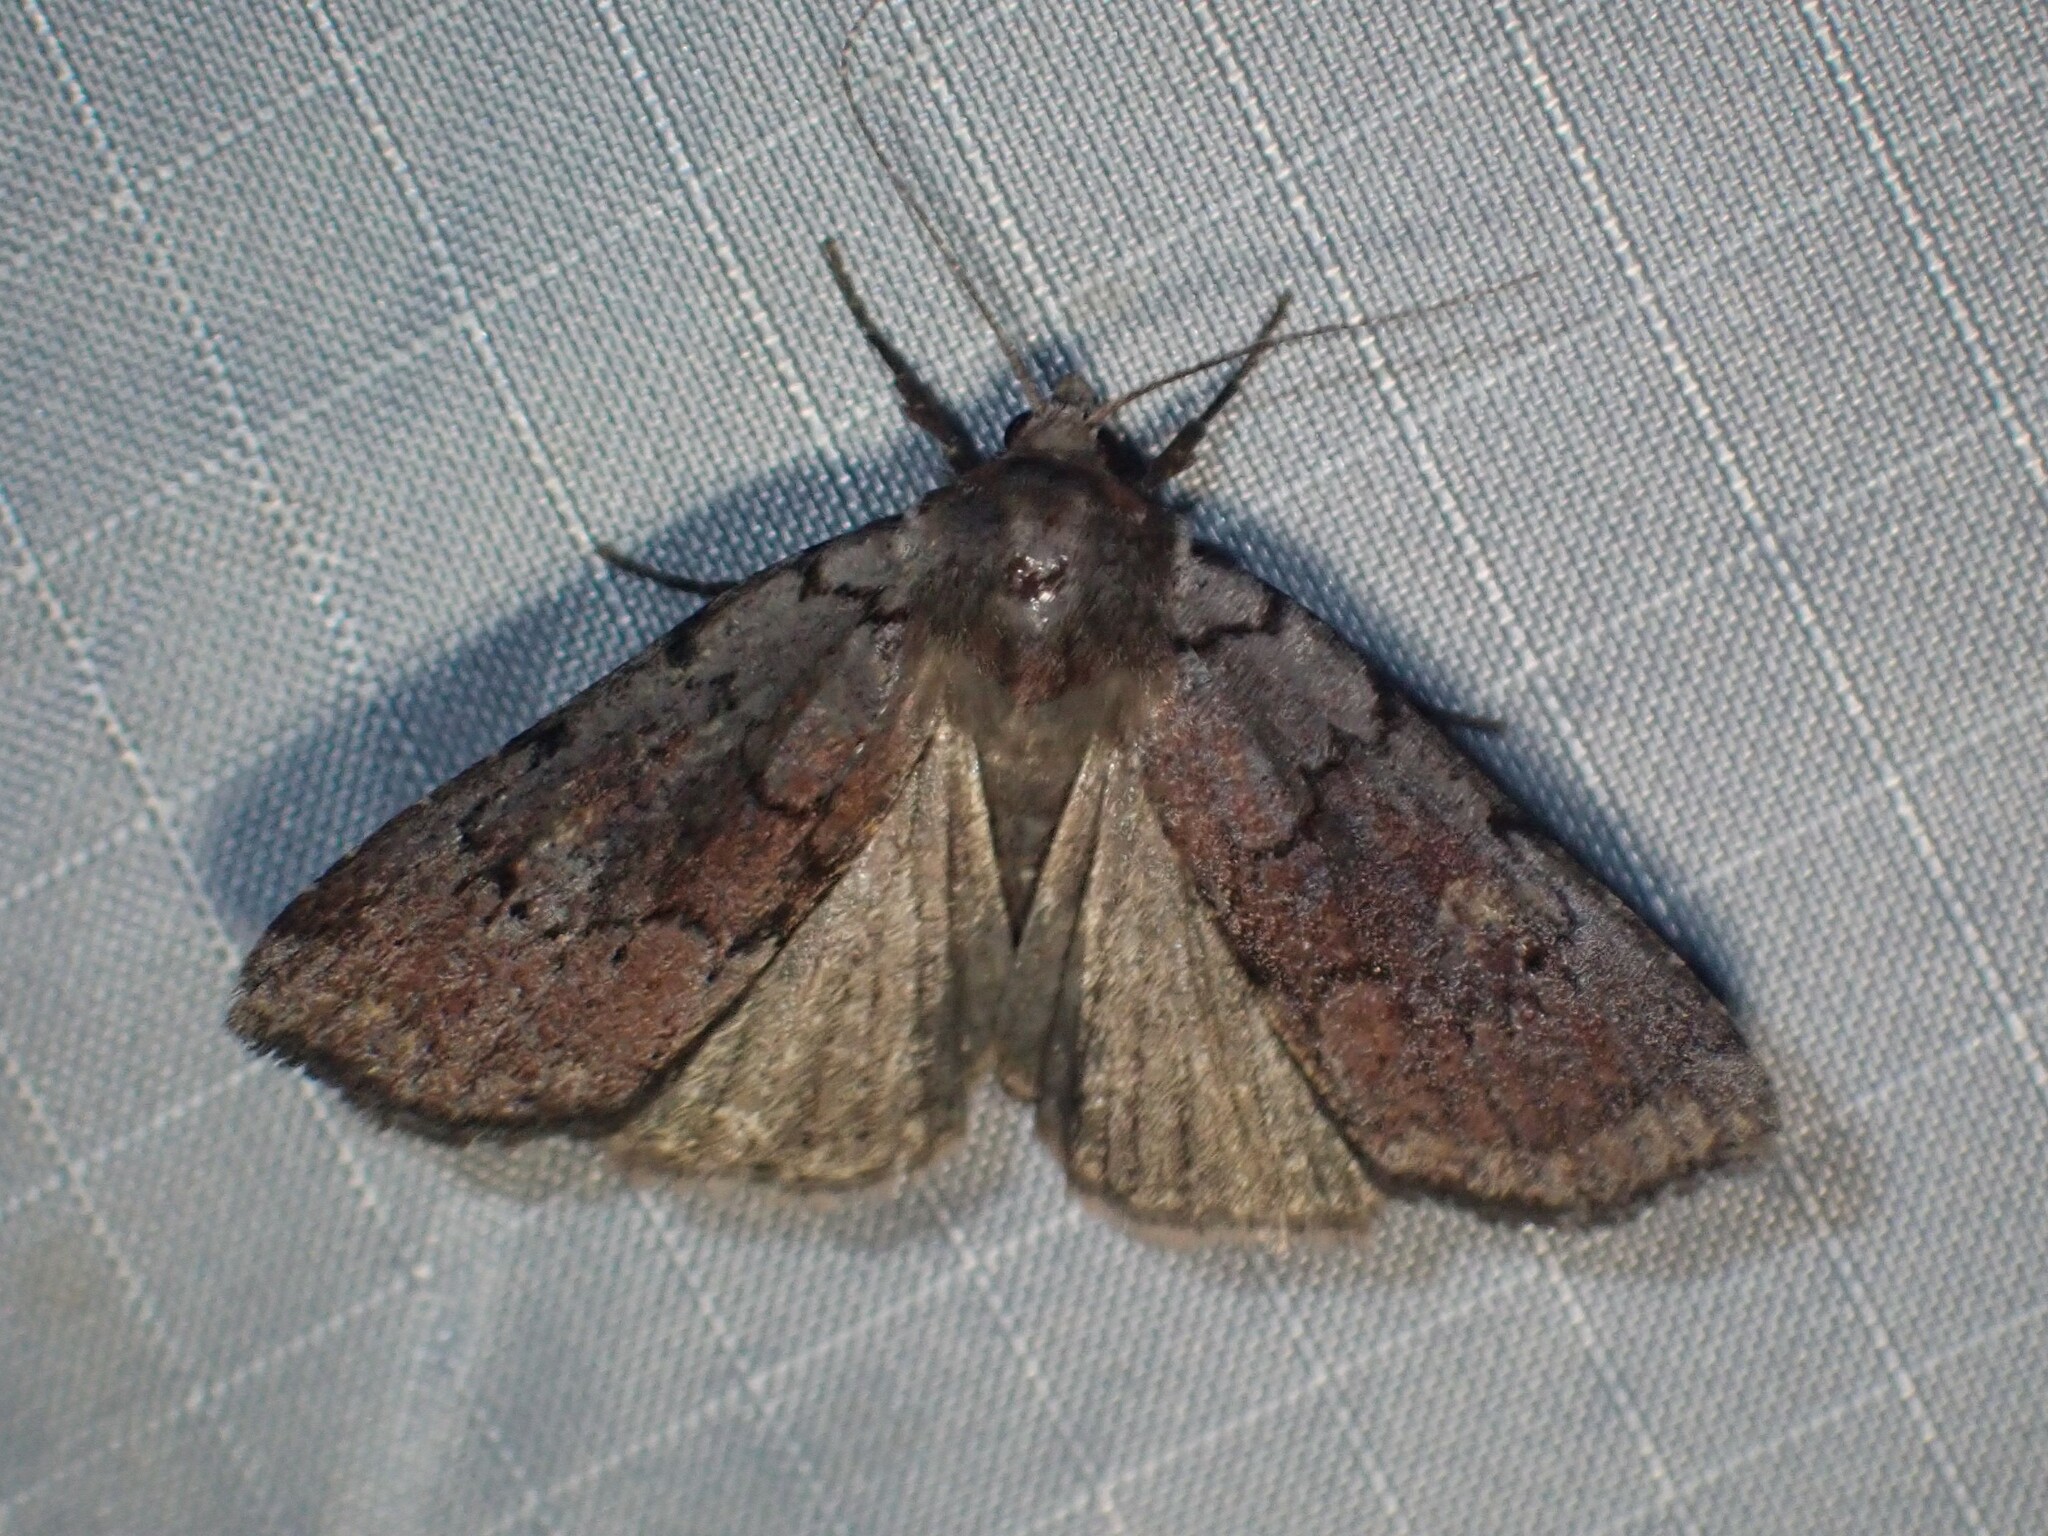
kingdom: Animalia
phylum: Arthropoda
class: Insecta
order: Lepidoptera
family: Noctuidae
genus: Xestia
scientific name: Xestia dilucida
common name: Dull reddish dart
